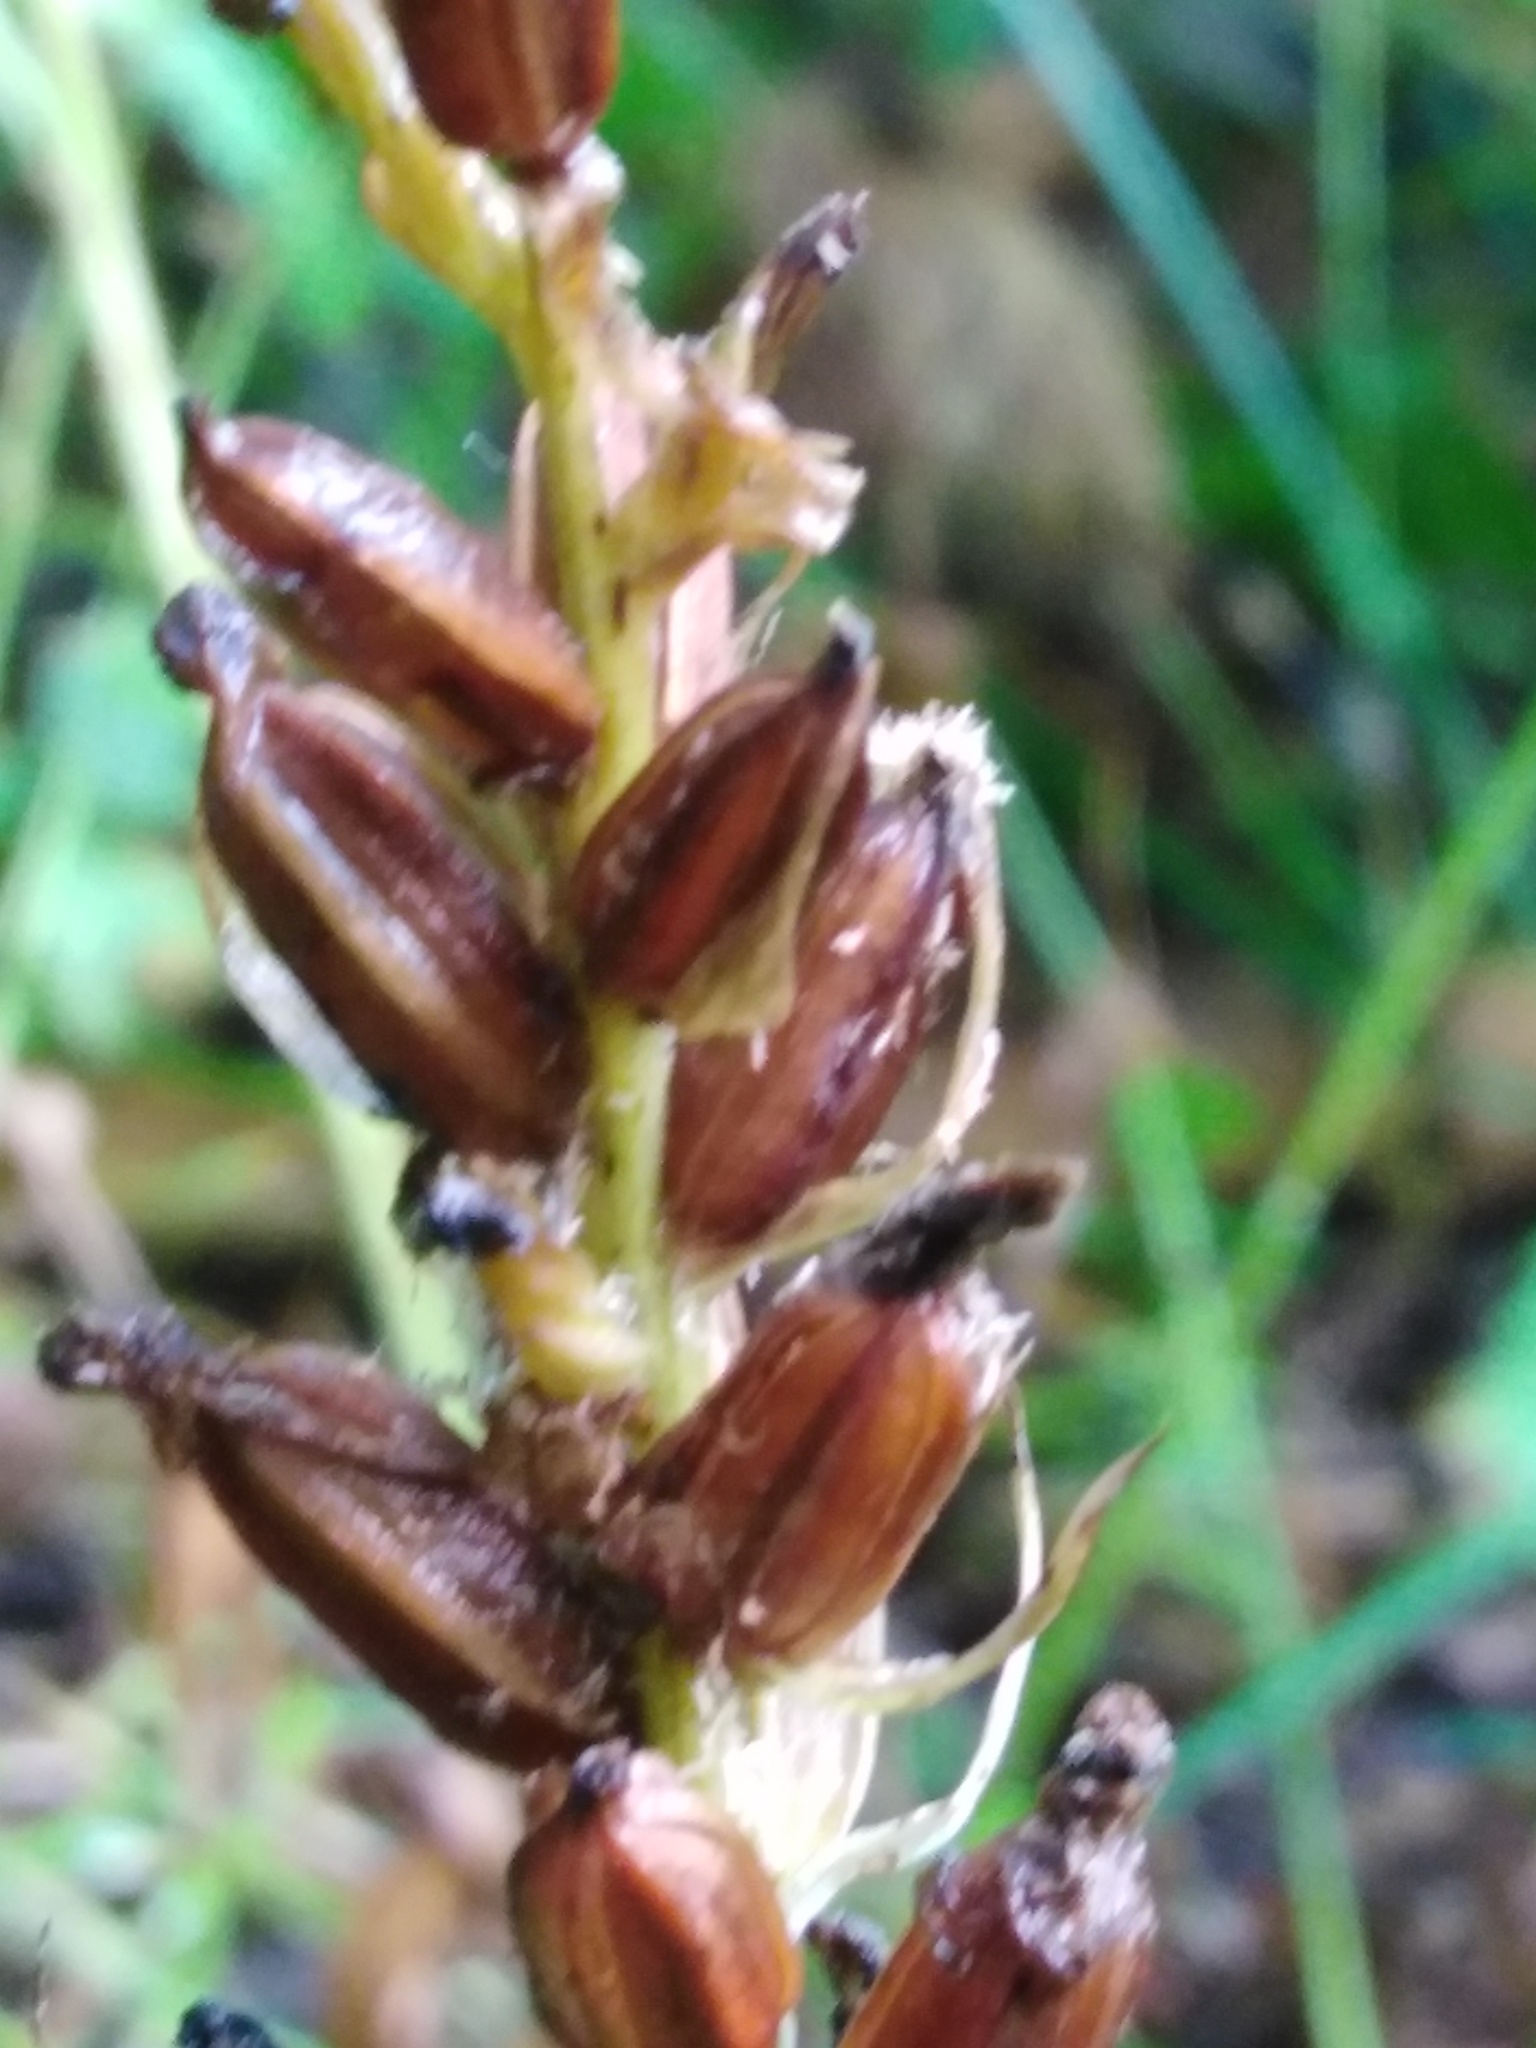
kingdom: Plantae
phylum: Tracheophyta
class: Liliopsida
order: Asparagales
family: Orchidaceae
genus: Dactylorhiza
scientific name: Dactylorhiza maculata
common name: Heath spotted-orchid
